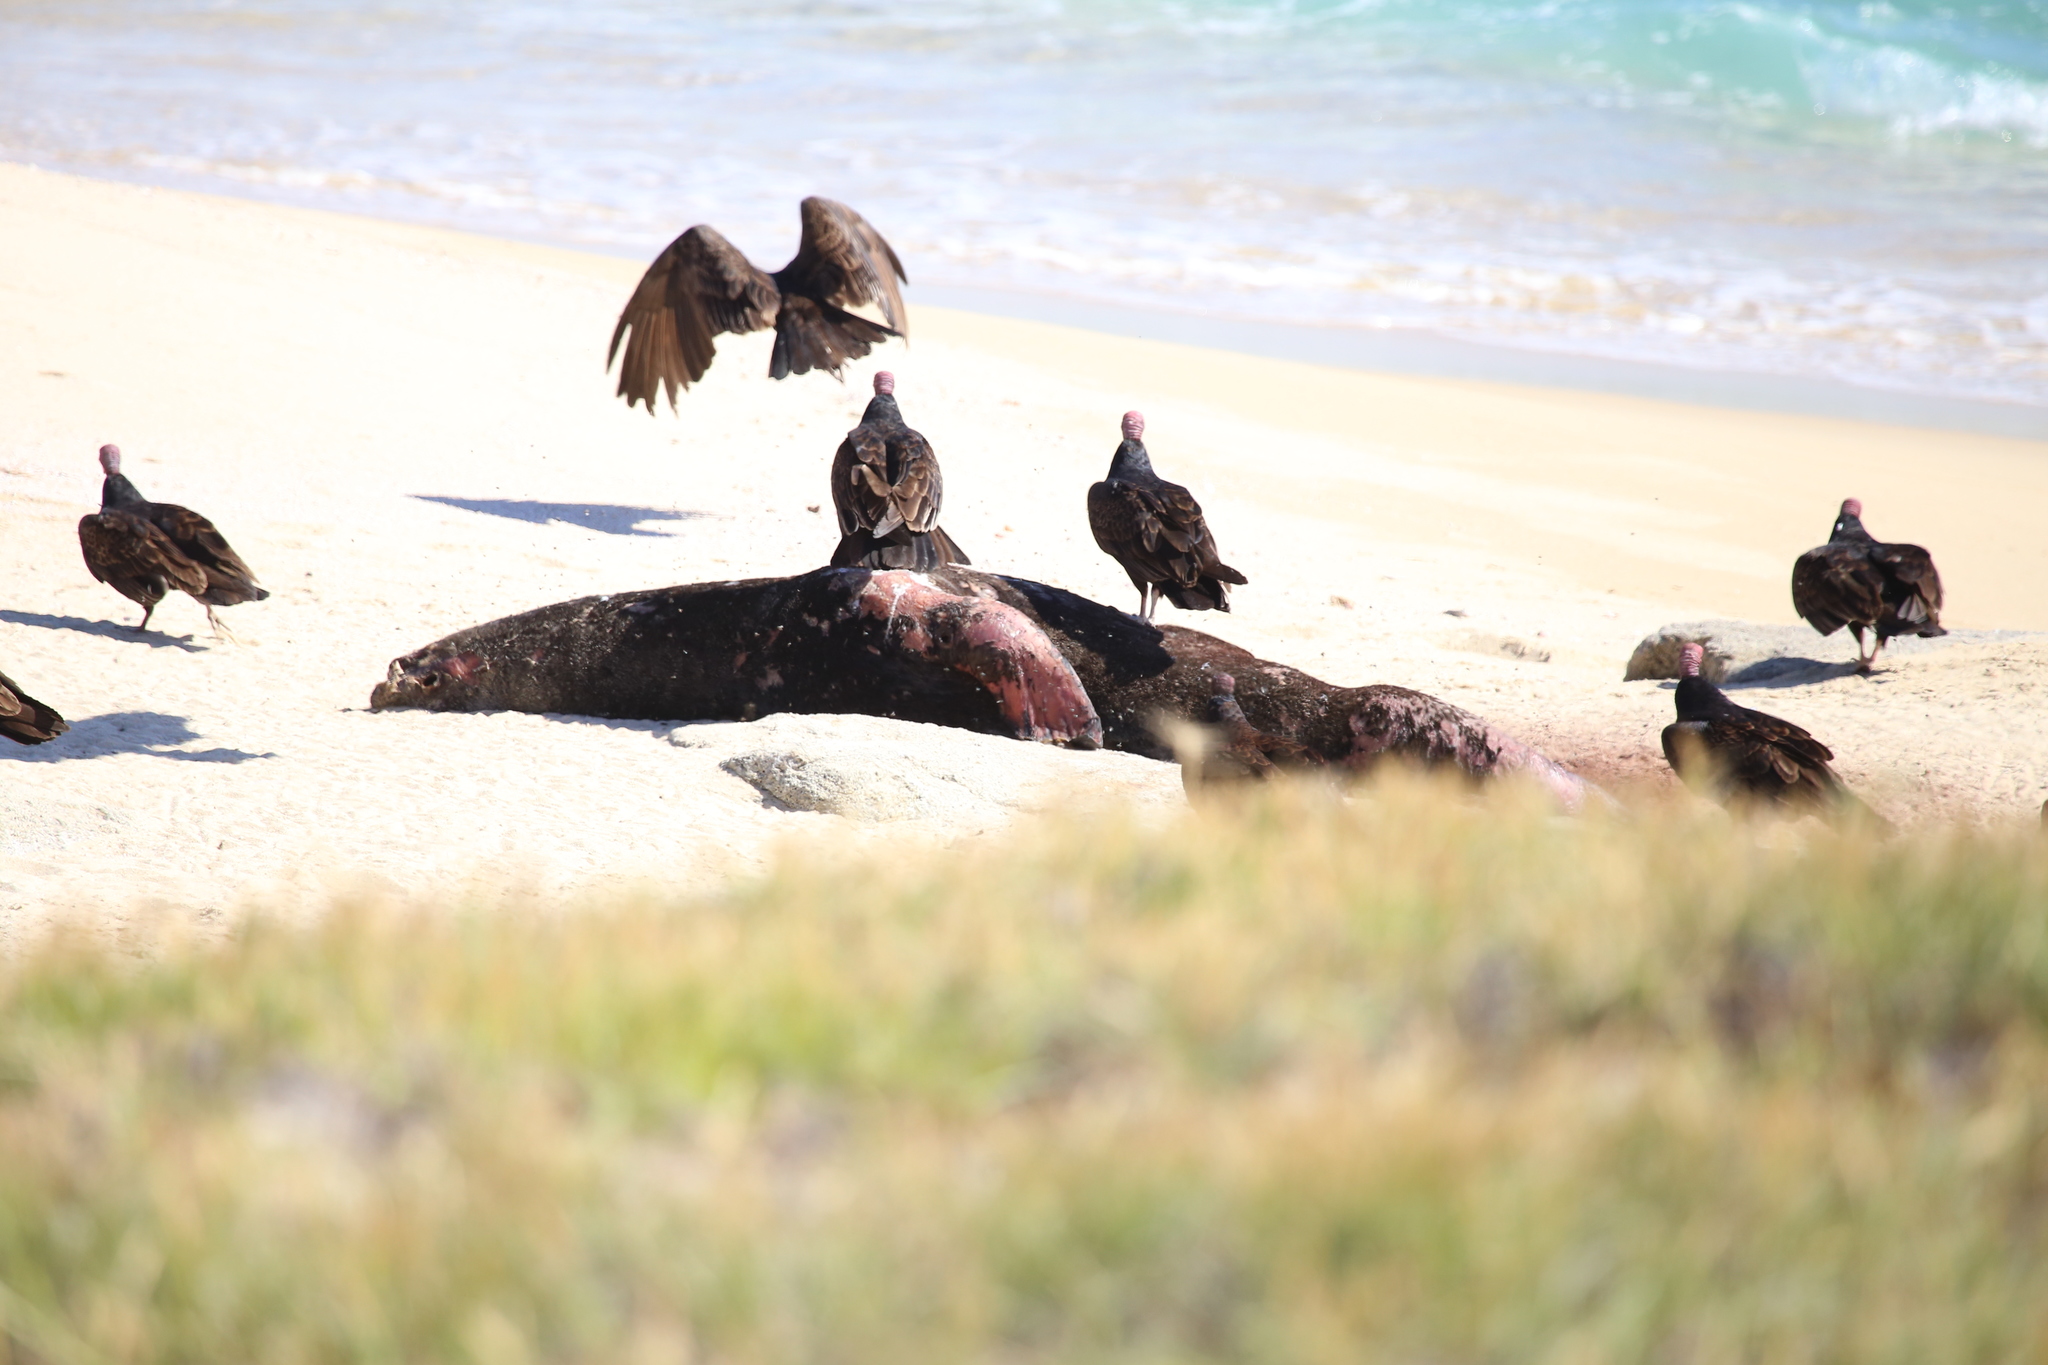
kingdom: Animalia
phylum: Chordata
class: Aves
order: Accipitriformes
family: Cathartidae
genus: Cathartes
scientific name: Cathartes aura
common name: Turkey vulture
